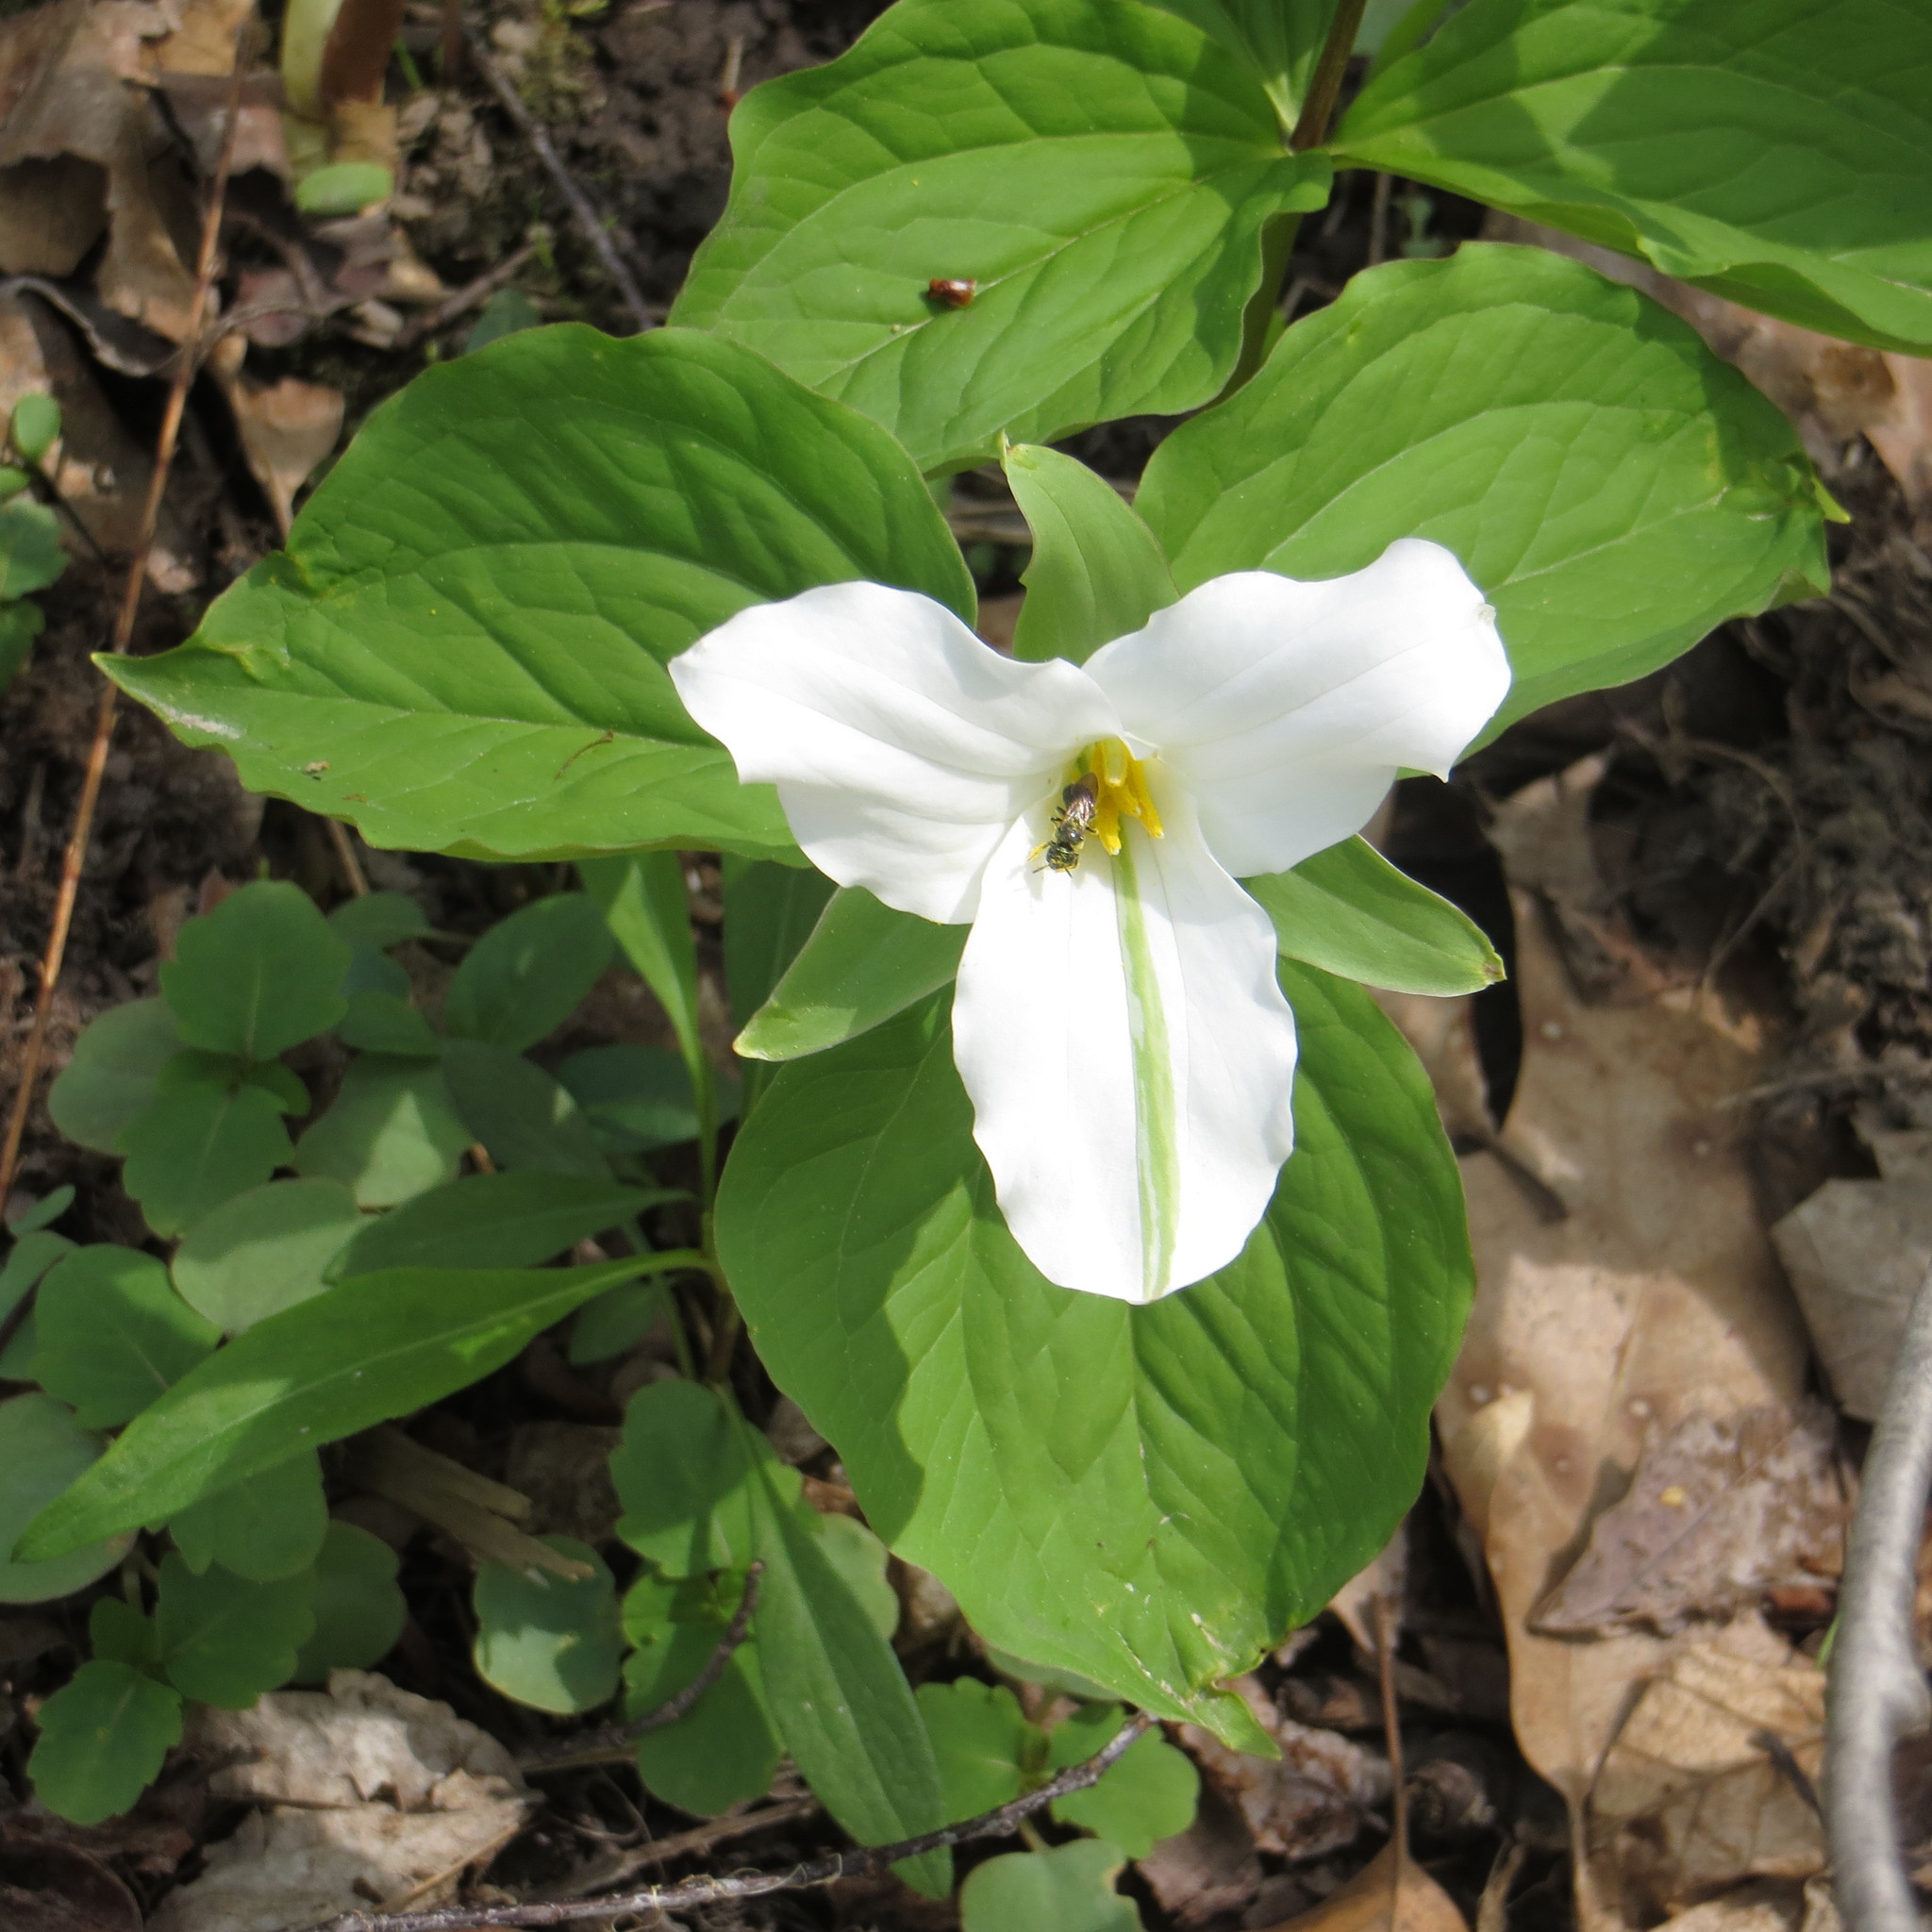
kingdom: Plantae
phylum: Tracheophyta
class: Liliopsida
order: Liliales
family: Melanthiaceae
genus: Trillium
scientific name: Trillium grandiflorum
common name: Great white trillium
